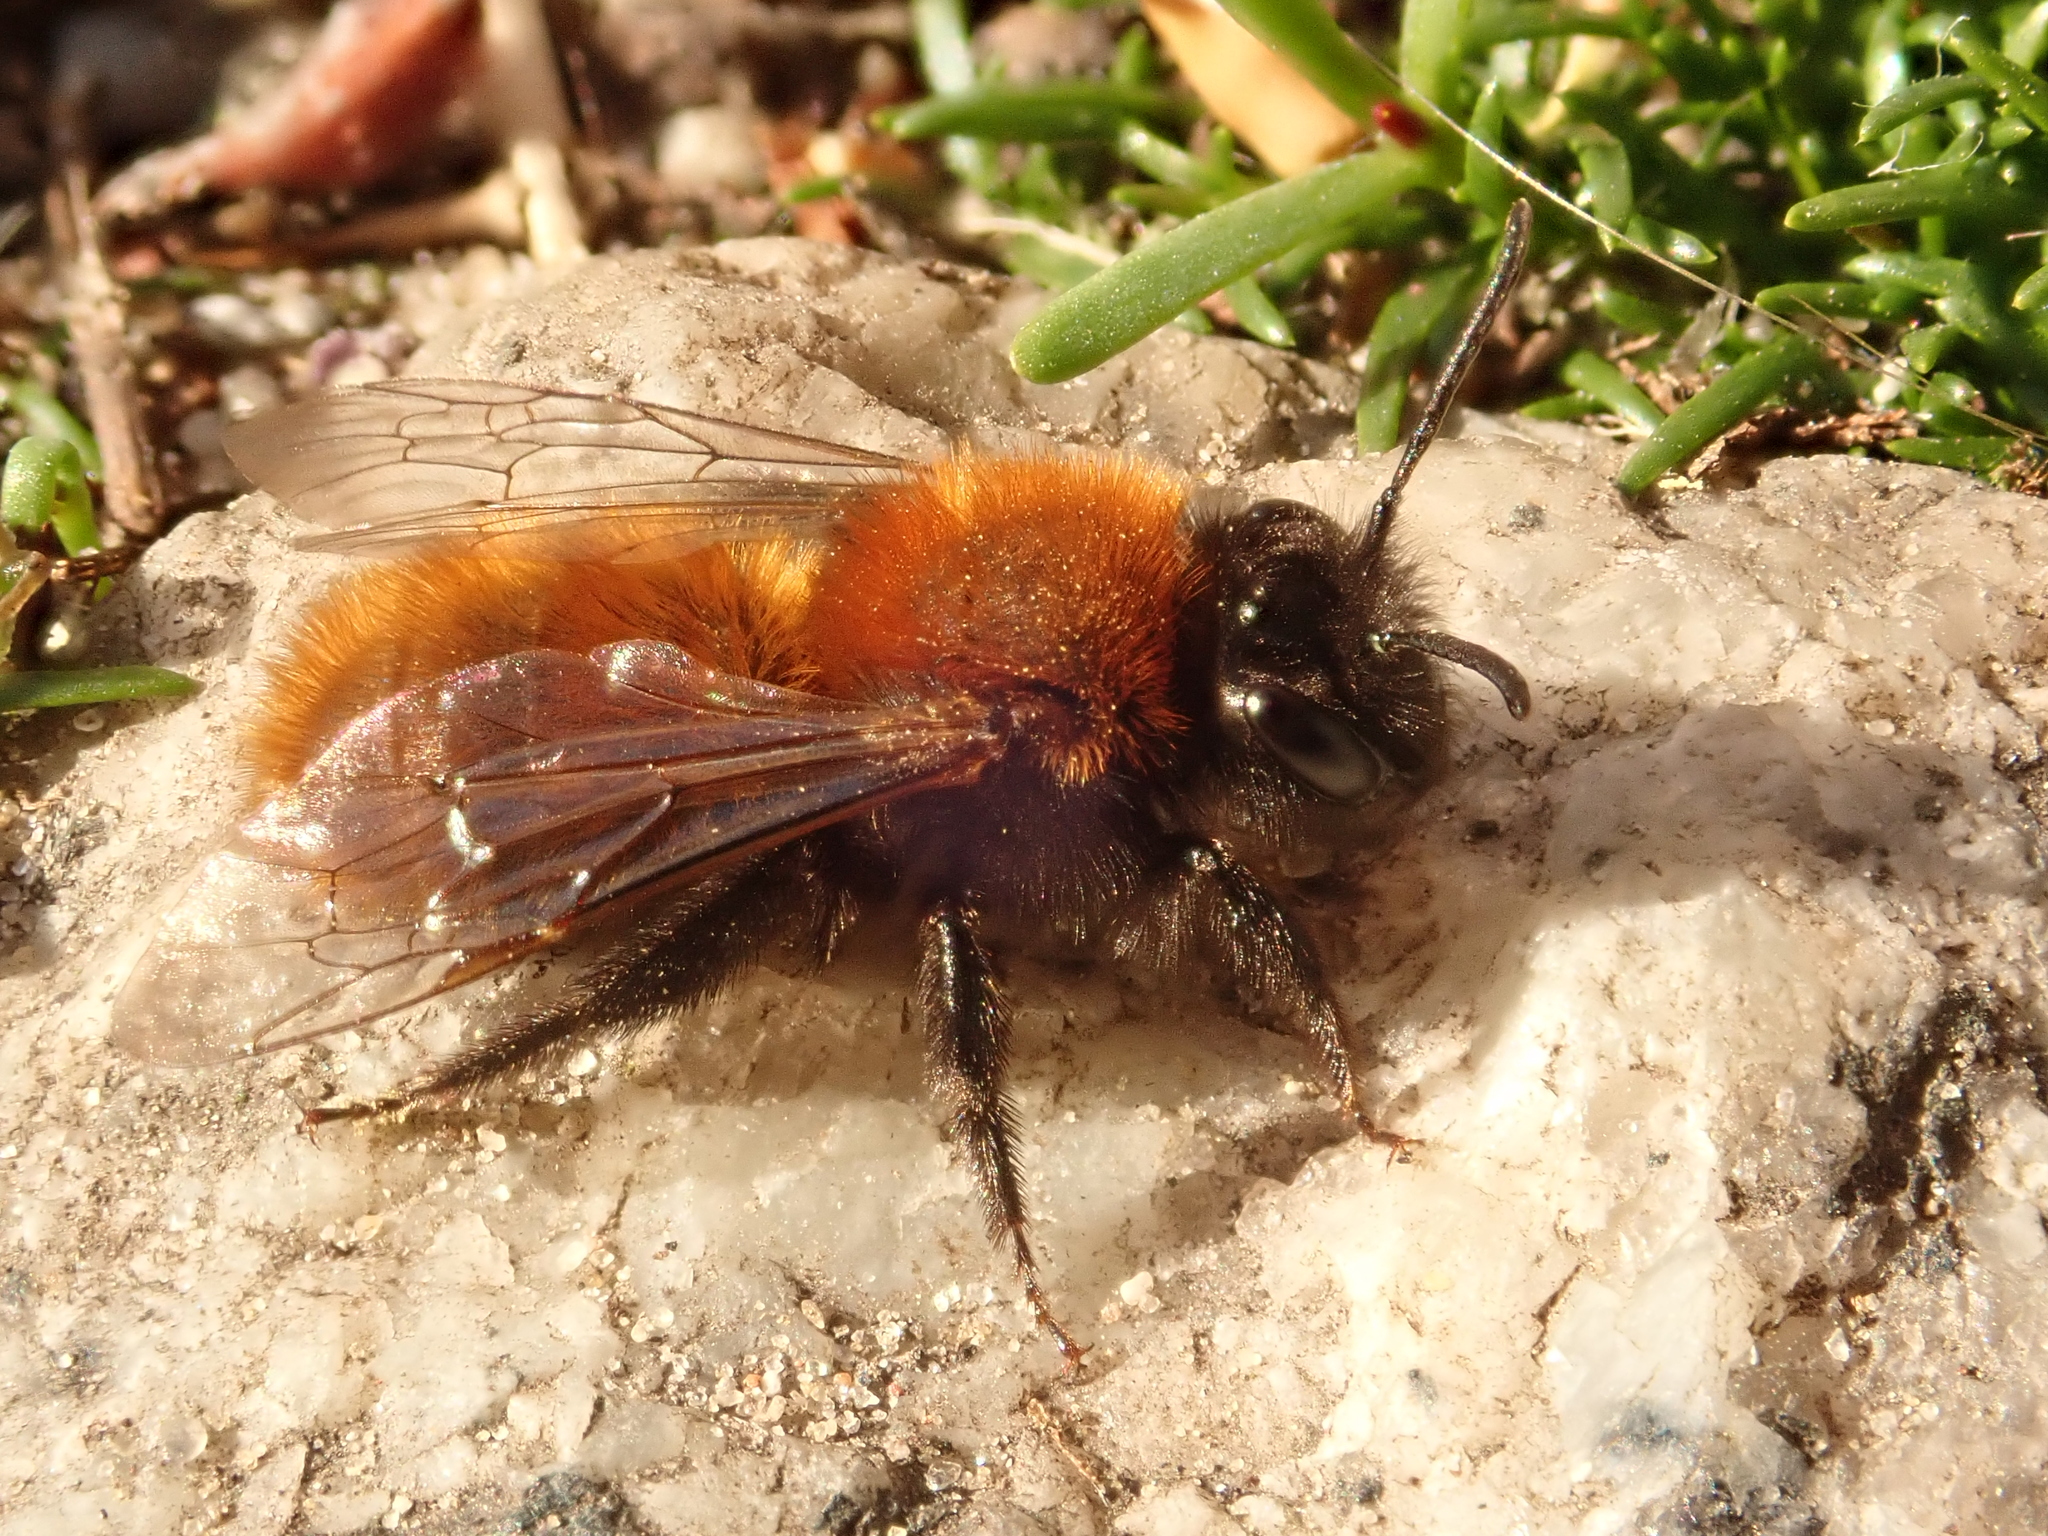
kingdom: Animalia
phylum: Arthropoda
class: Insecta
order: Hymenoptera
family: Andrenidae
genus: Andrena
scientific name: Andrena fulva
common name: Tawny mining bee
